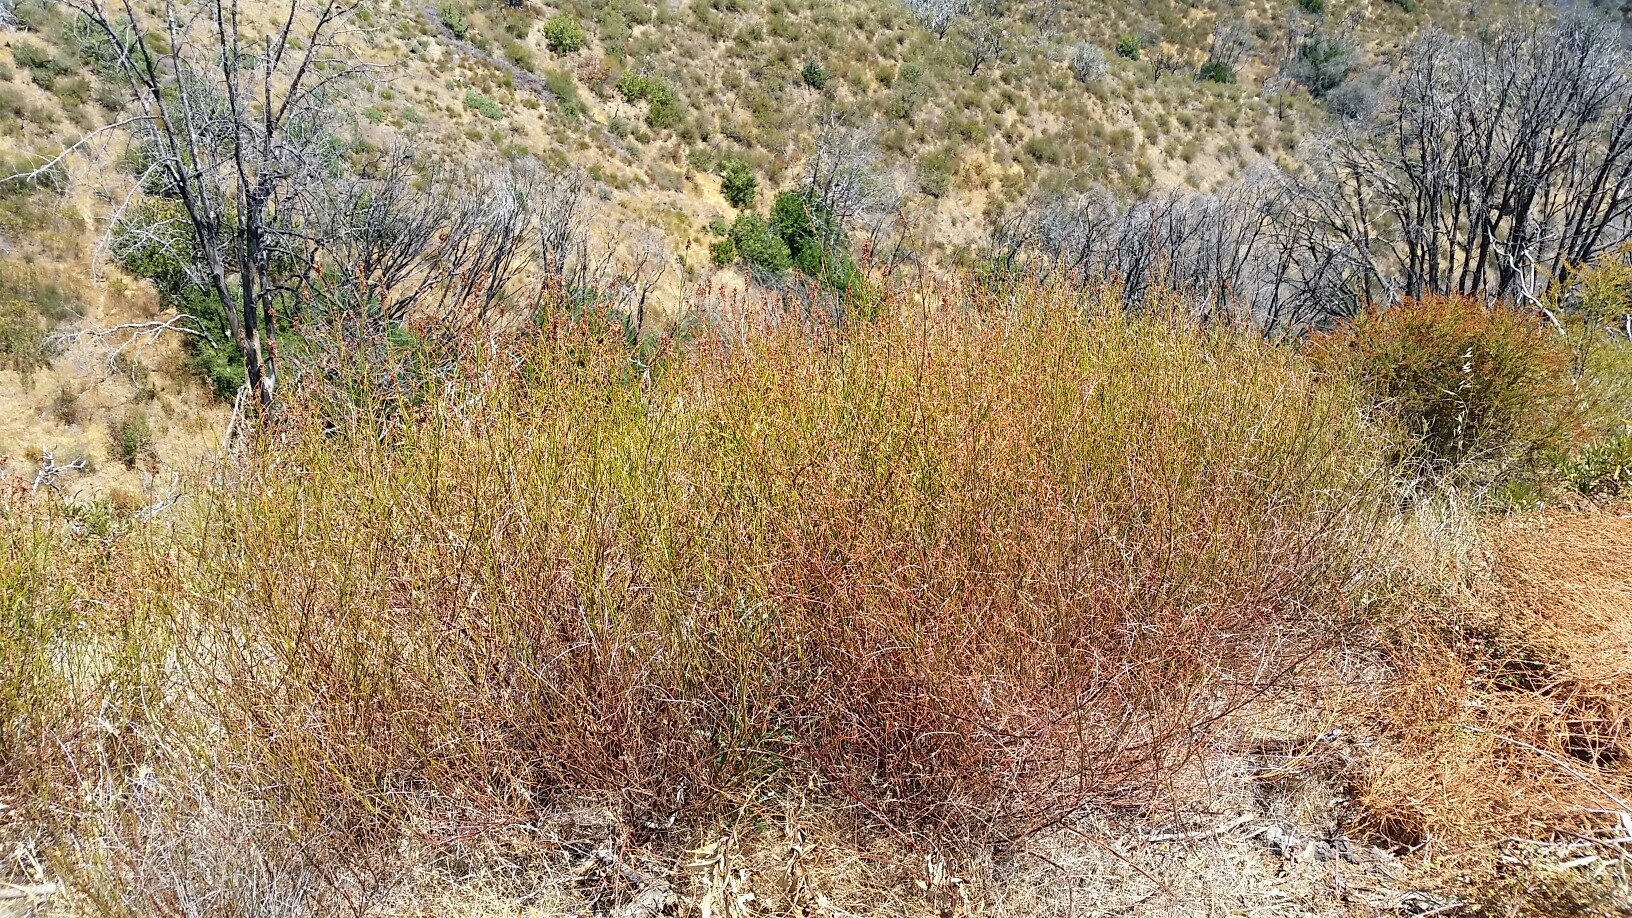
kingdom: Plantae
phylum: Tracheophyta
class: Magnoliopsida
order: Rosales
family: Rosaceae
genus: Adenostoma
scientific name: Adenostoma fasciculatum
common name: Chamise
